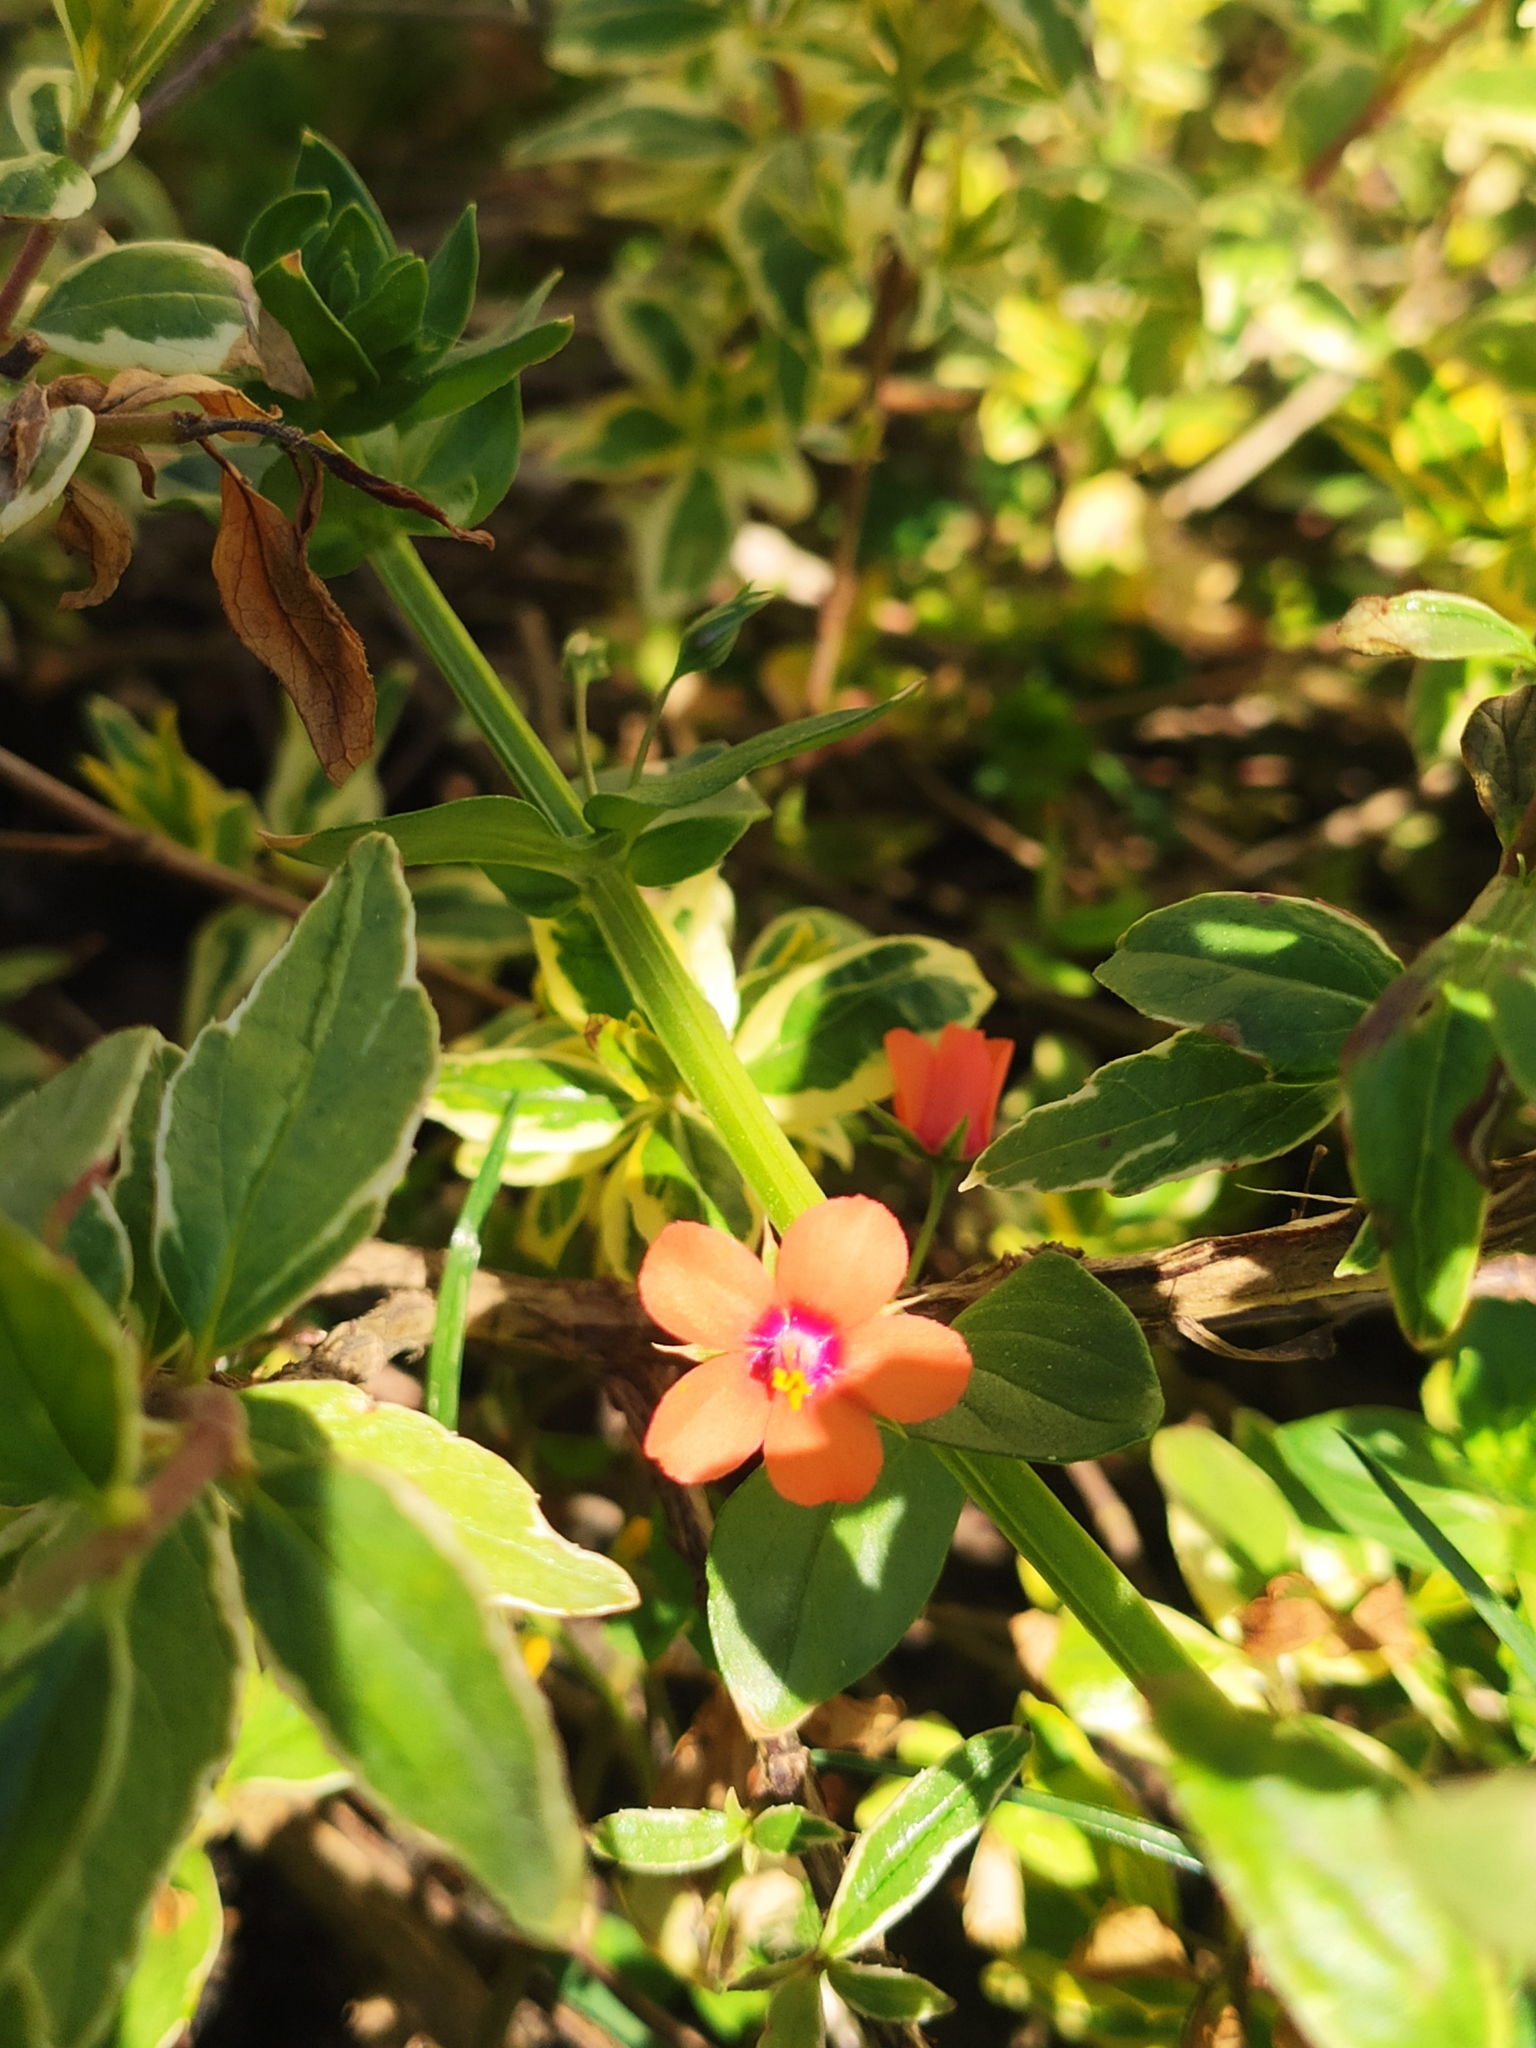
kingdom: Plantae
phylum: Tracheophyta
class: Magnoliopsida
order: Ericales
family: Primulaceae
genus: Lysimachia
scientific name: Lysimachia arvensis
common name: Scarlet pimpernel
